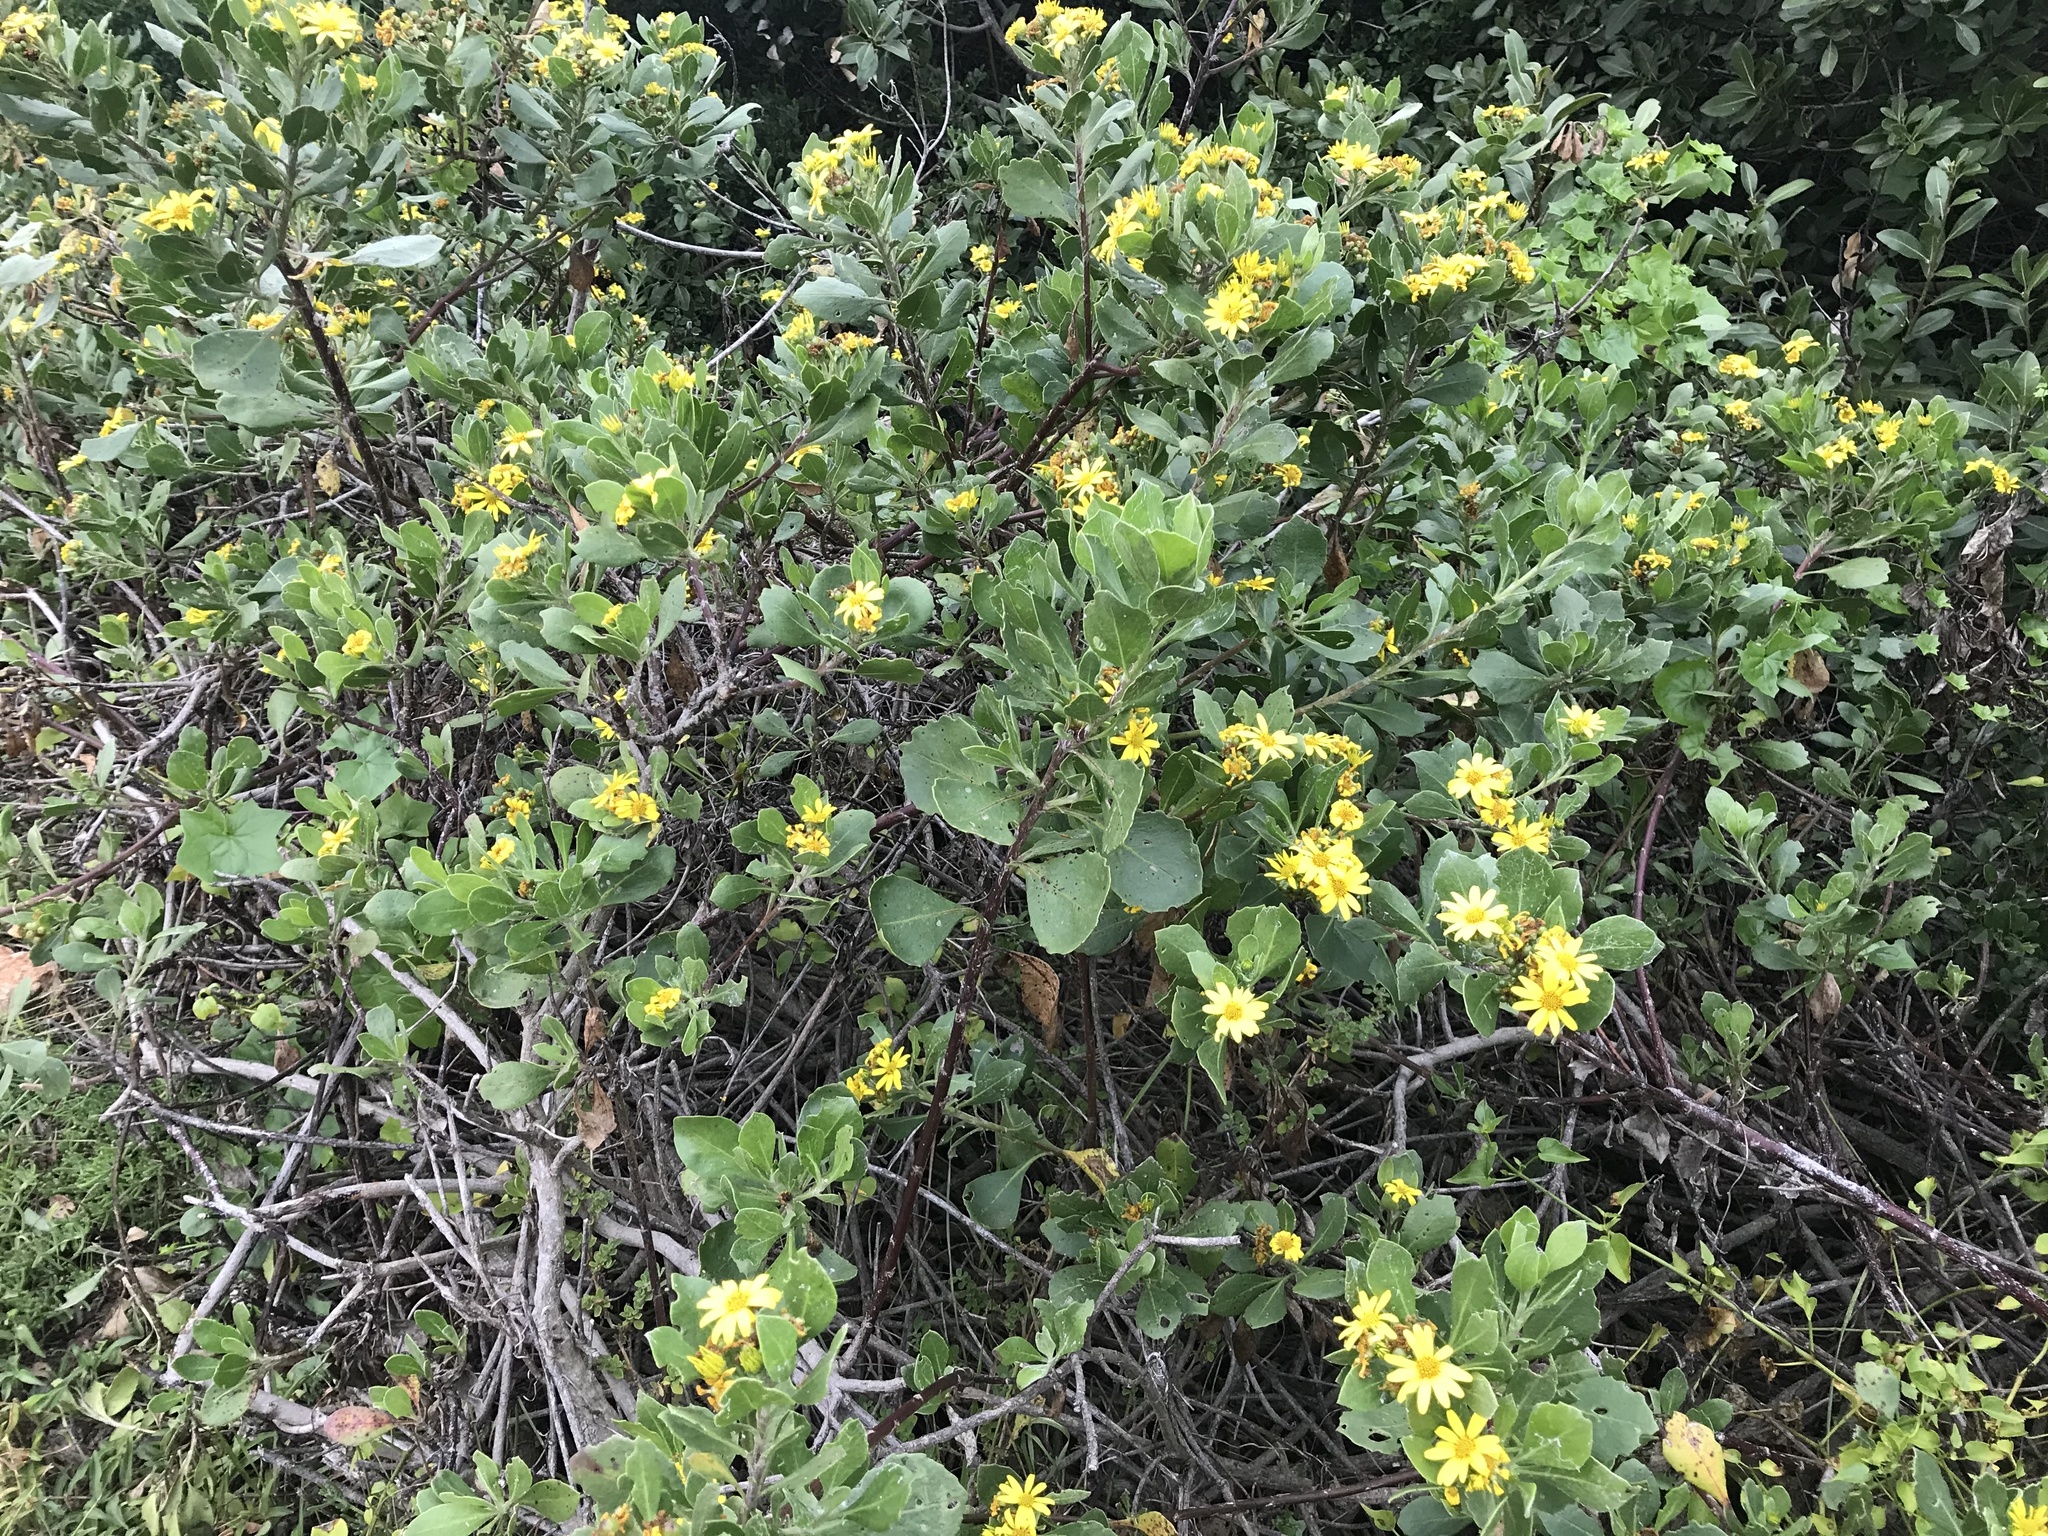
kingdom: Plantae
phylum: Tracheophyta
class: Magnoliopsida
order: Asterales
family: Asteraceae
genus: Osteospermum
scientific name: Osteospermum moniliferum
